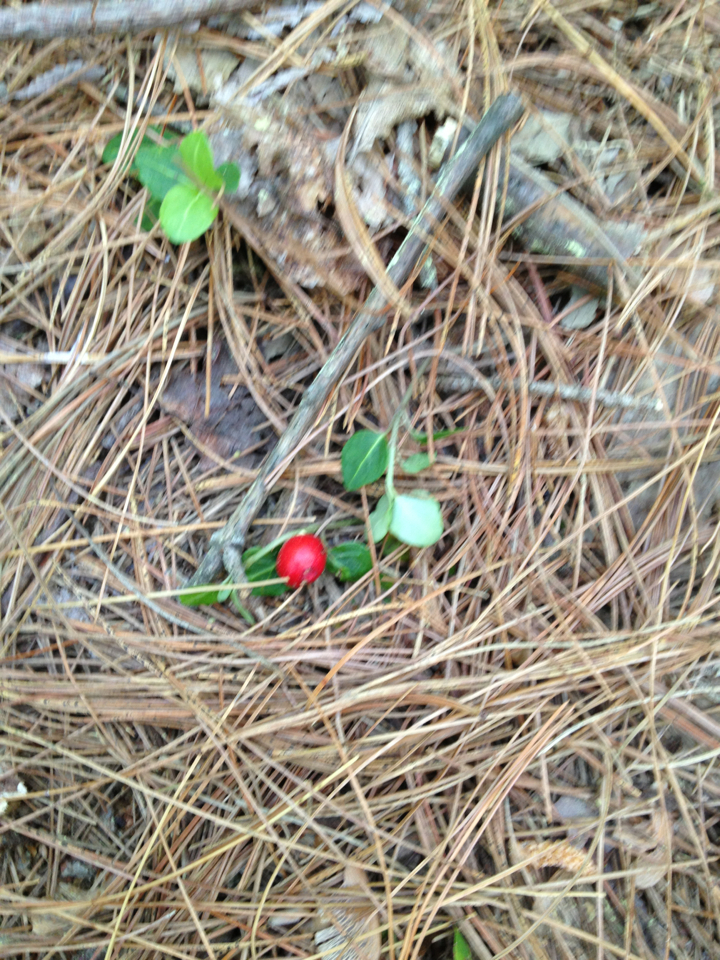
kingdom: Plantae
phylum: Tracheophyta
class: Magnoliopsida
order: Gentianales
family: Rubiaceae
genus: Mitchella
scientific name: Mitchella repens
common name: Partridge-berry
